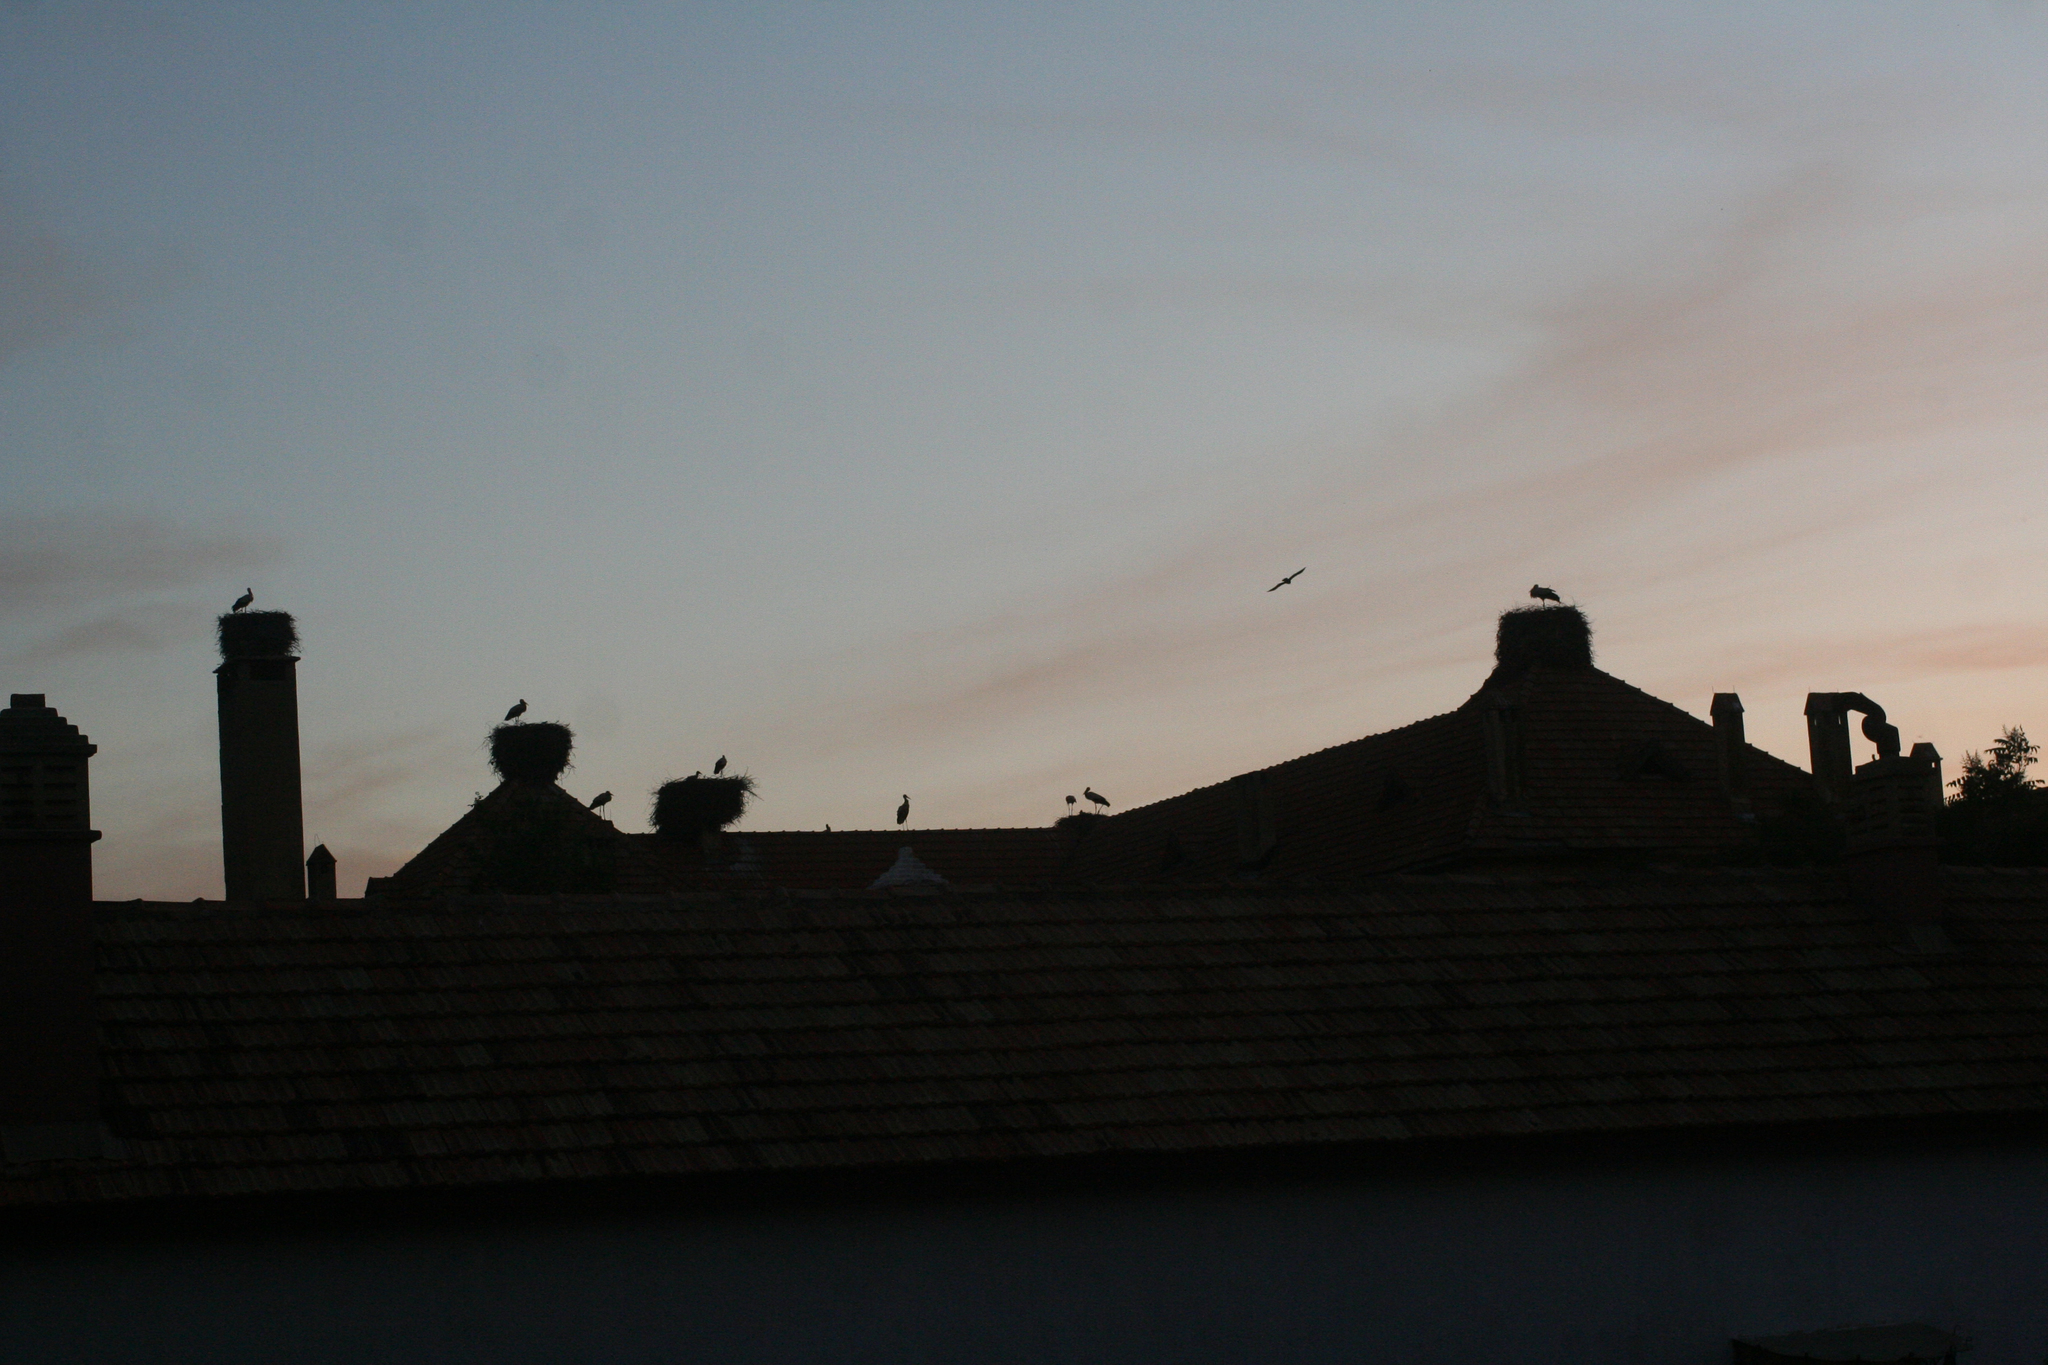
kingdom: Animalia
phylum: Chordata
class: Aves
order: Ciconiiformes
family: Ciconiidae
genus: Ciconia
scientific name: Ciconia ciconia
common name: White stork
